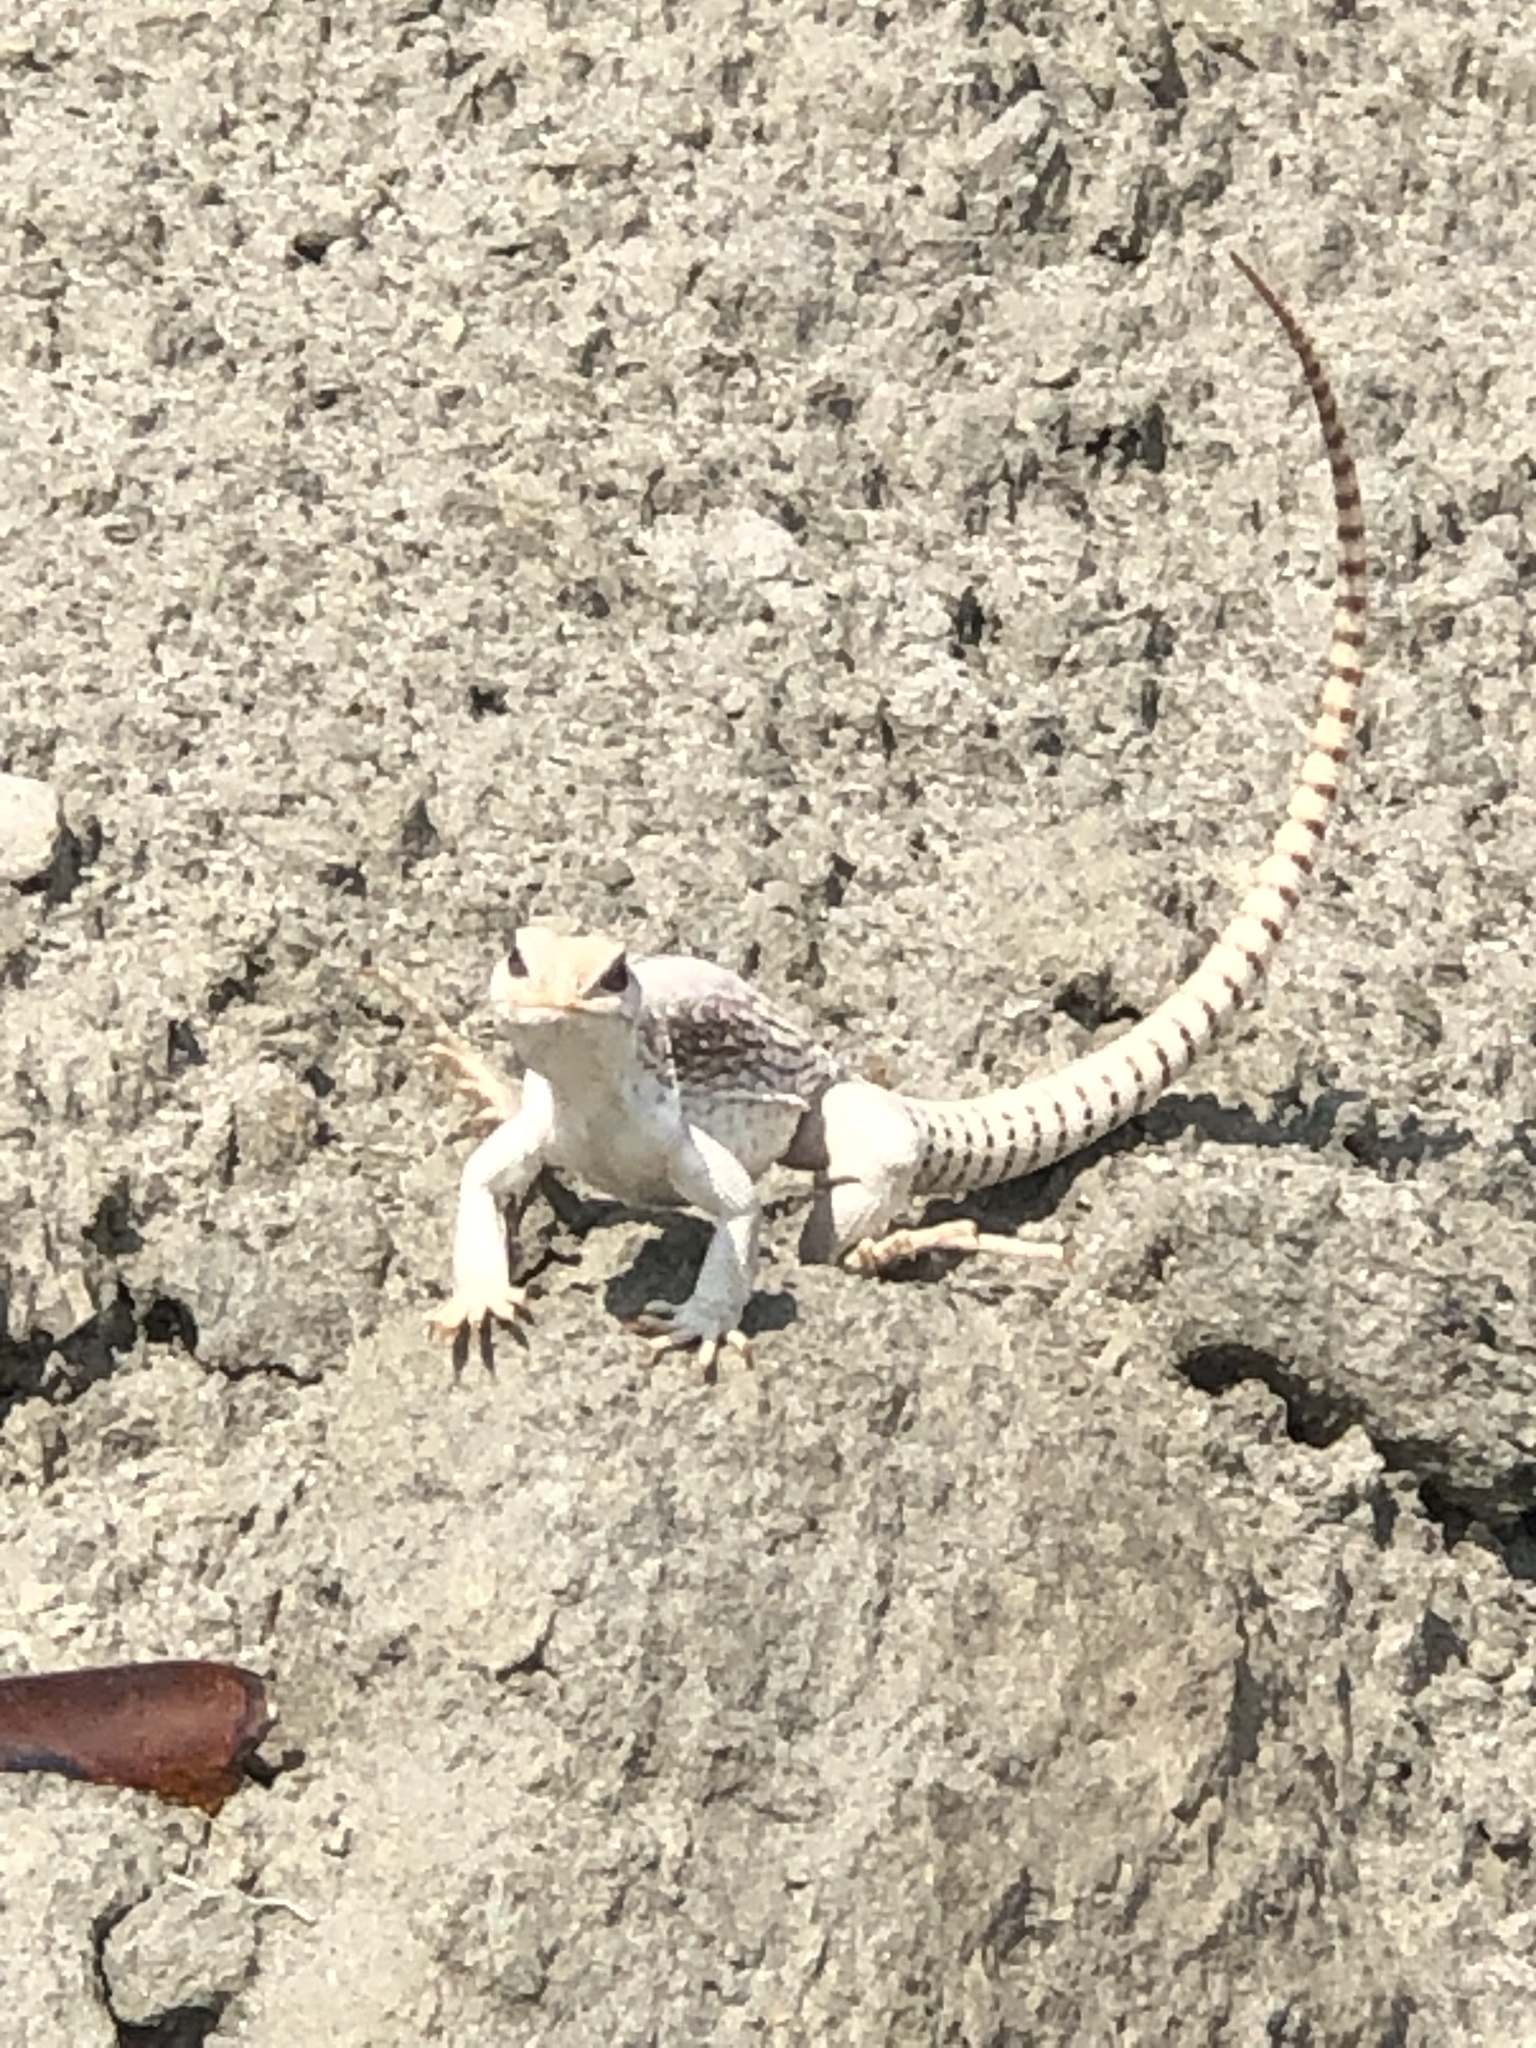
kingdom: Animalia
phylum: Chordata
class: Squamata
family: Iguanidae
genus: Dipsosaurus
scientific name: Dipsosaurus dorsalis
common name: Desert iguana
